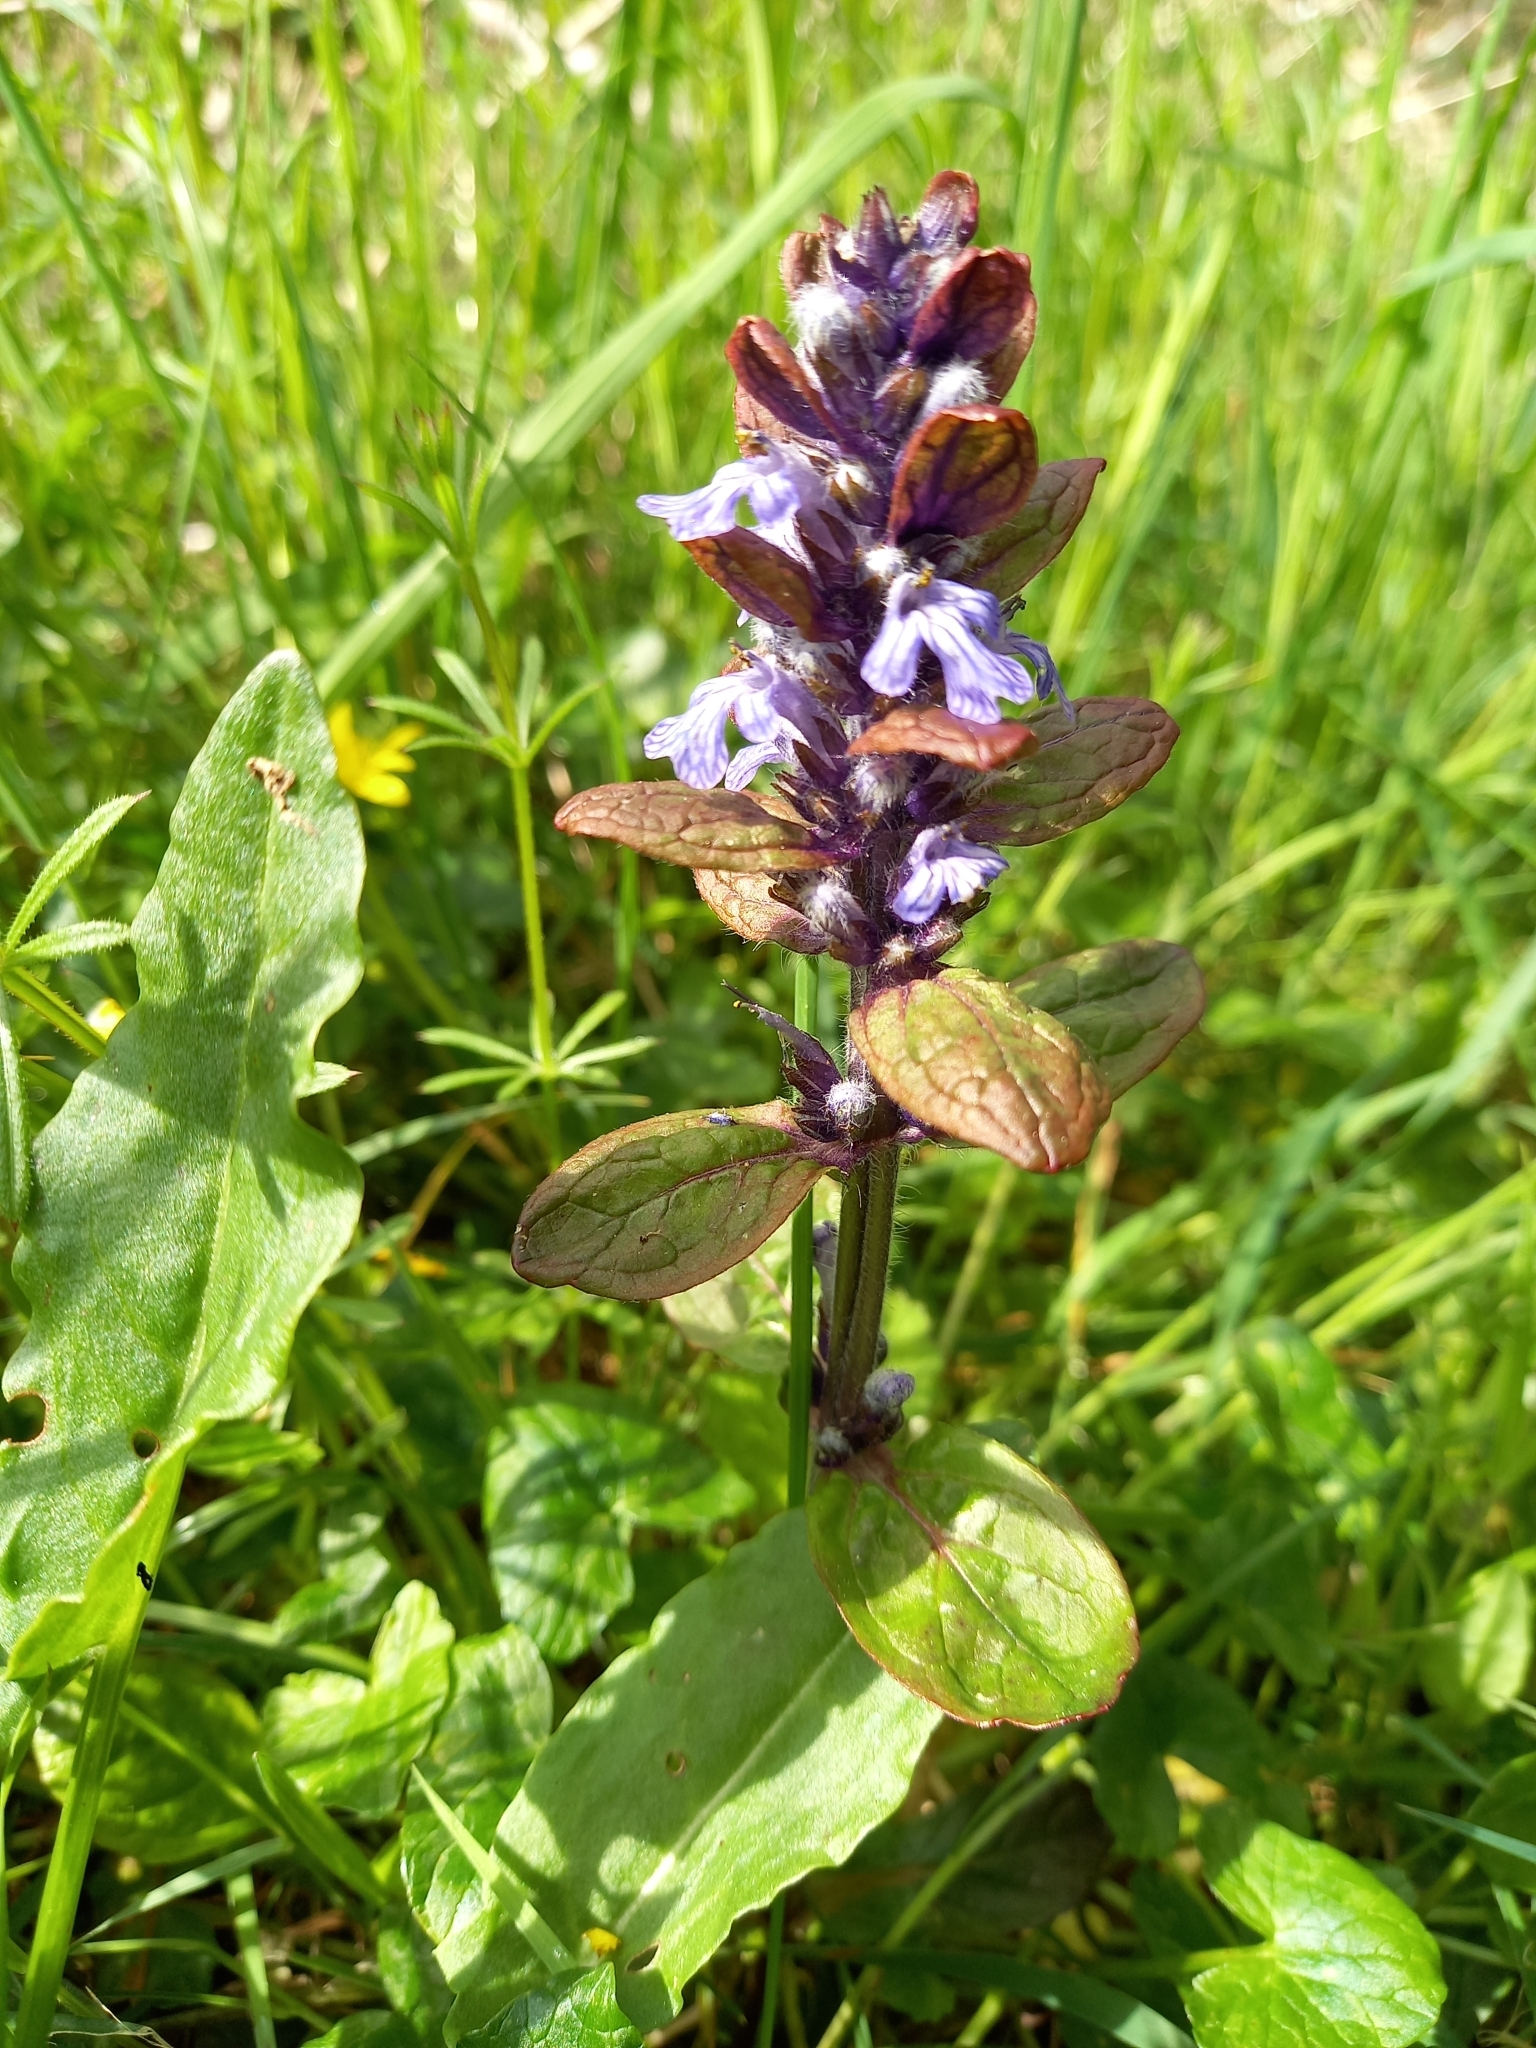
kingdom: Plantae
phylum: Tracheophyta
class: Magnoliopsida
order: Lamiales
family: Lamiaceae
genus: Ajuga
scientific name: Ajuga reptans
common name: Bugle
